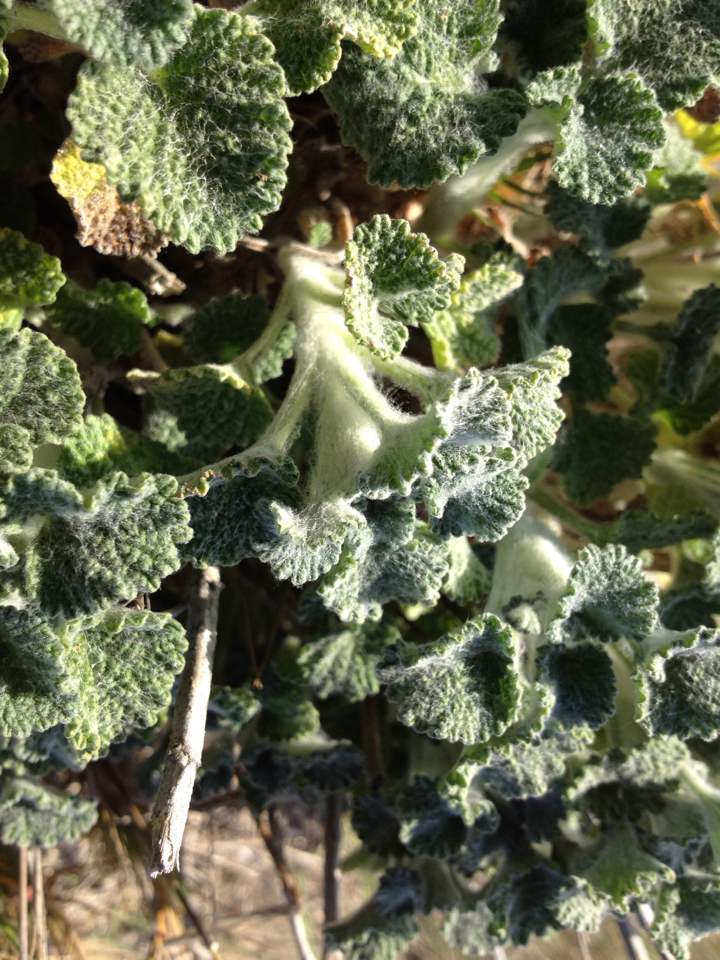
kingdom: Plantae
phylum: Tracheophyta
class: Magnoliopsida
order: Lamiales
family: Lamiaceae
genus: Marrubium
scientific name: Marrubium vulgare
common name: Horehound
